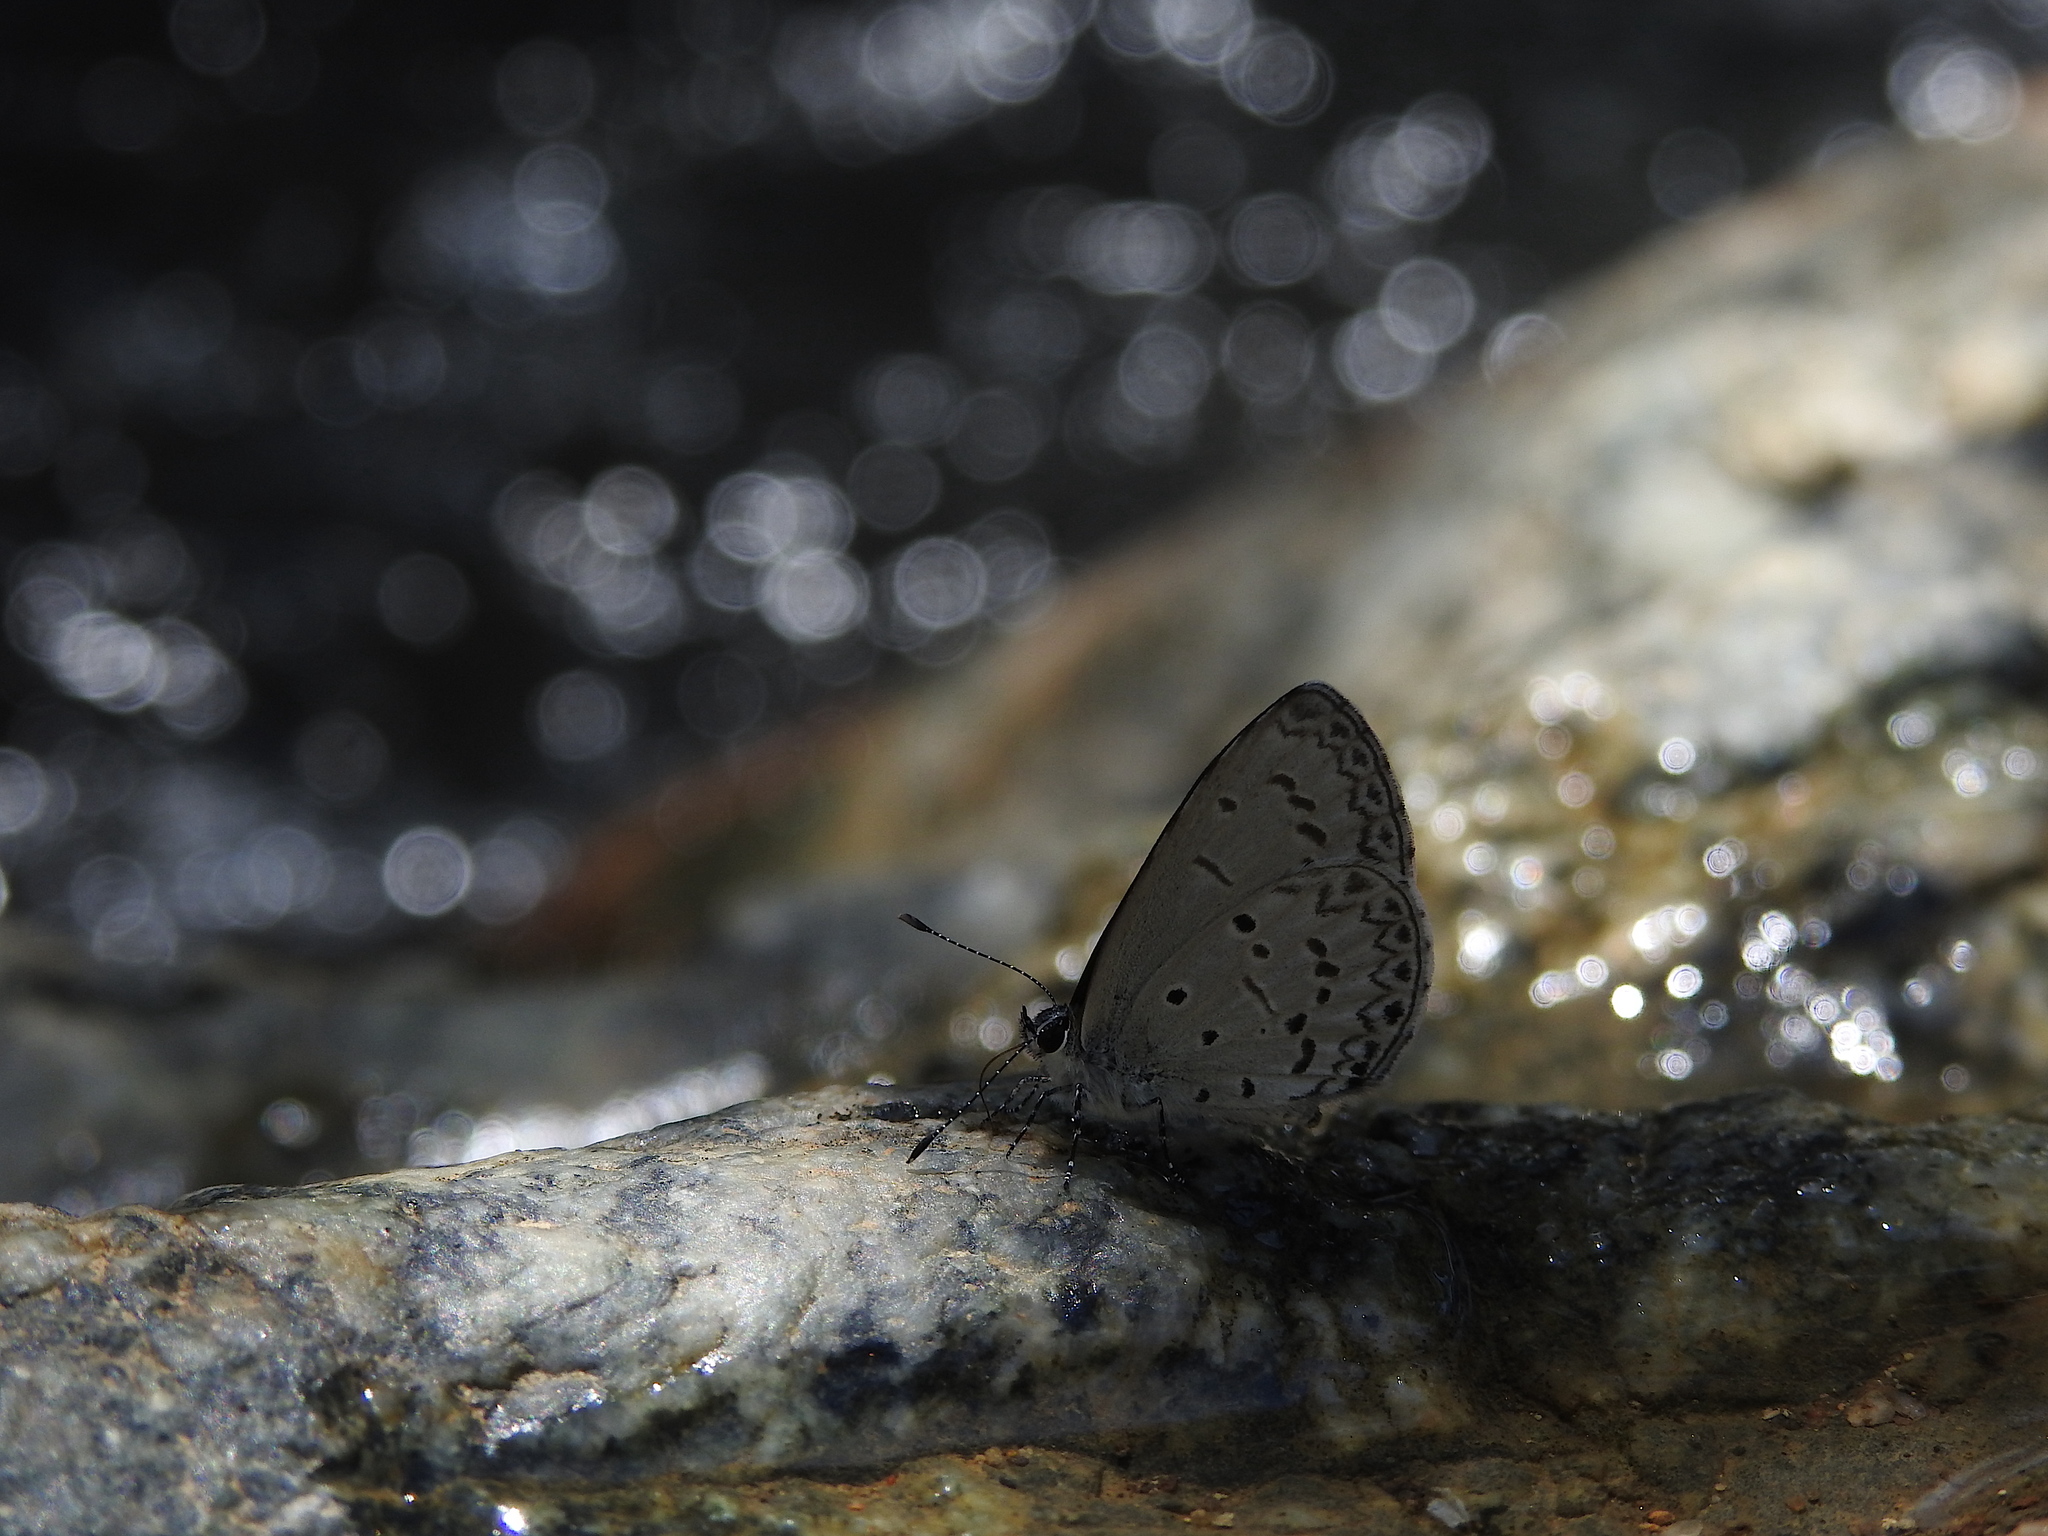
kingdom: Animalia
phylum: Arthropoda
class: Insecta
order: Lepidoptera
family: Lycaenidae
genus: Celastrina
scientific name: Celastrina lavendularis
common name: Plain hedge blue
